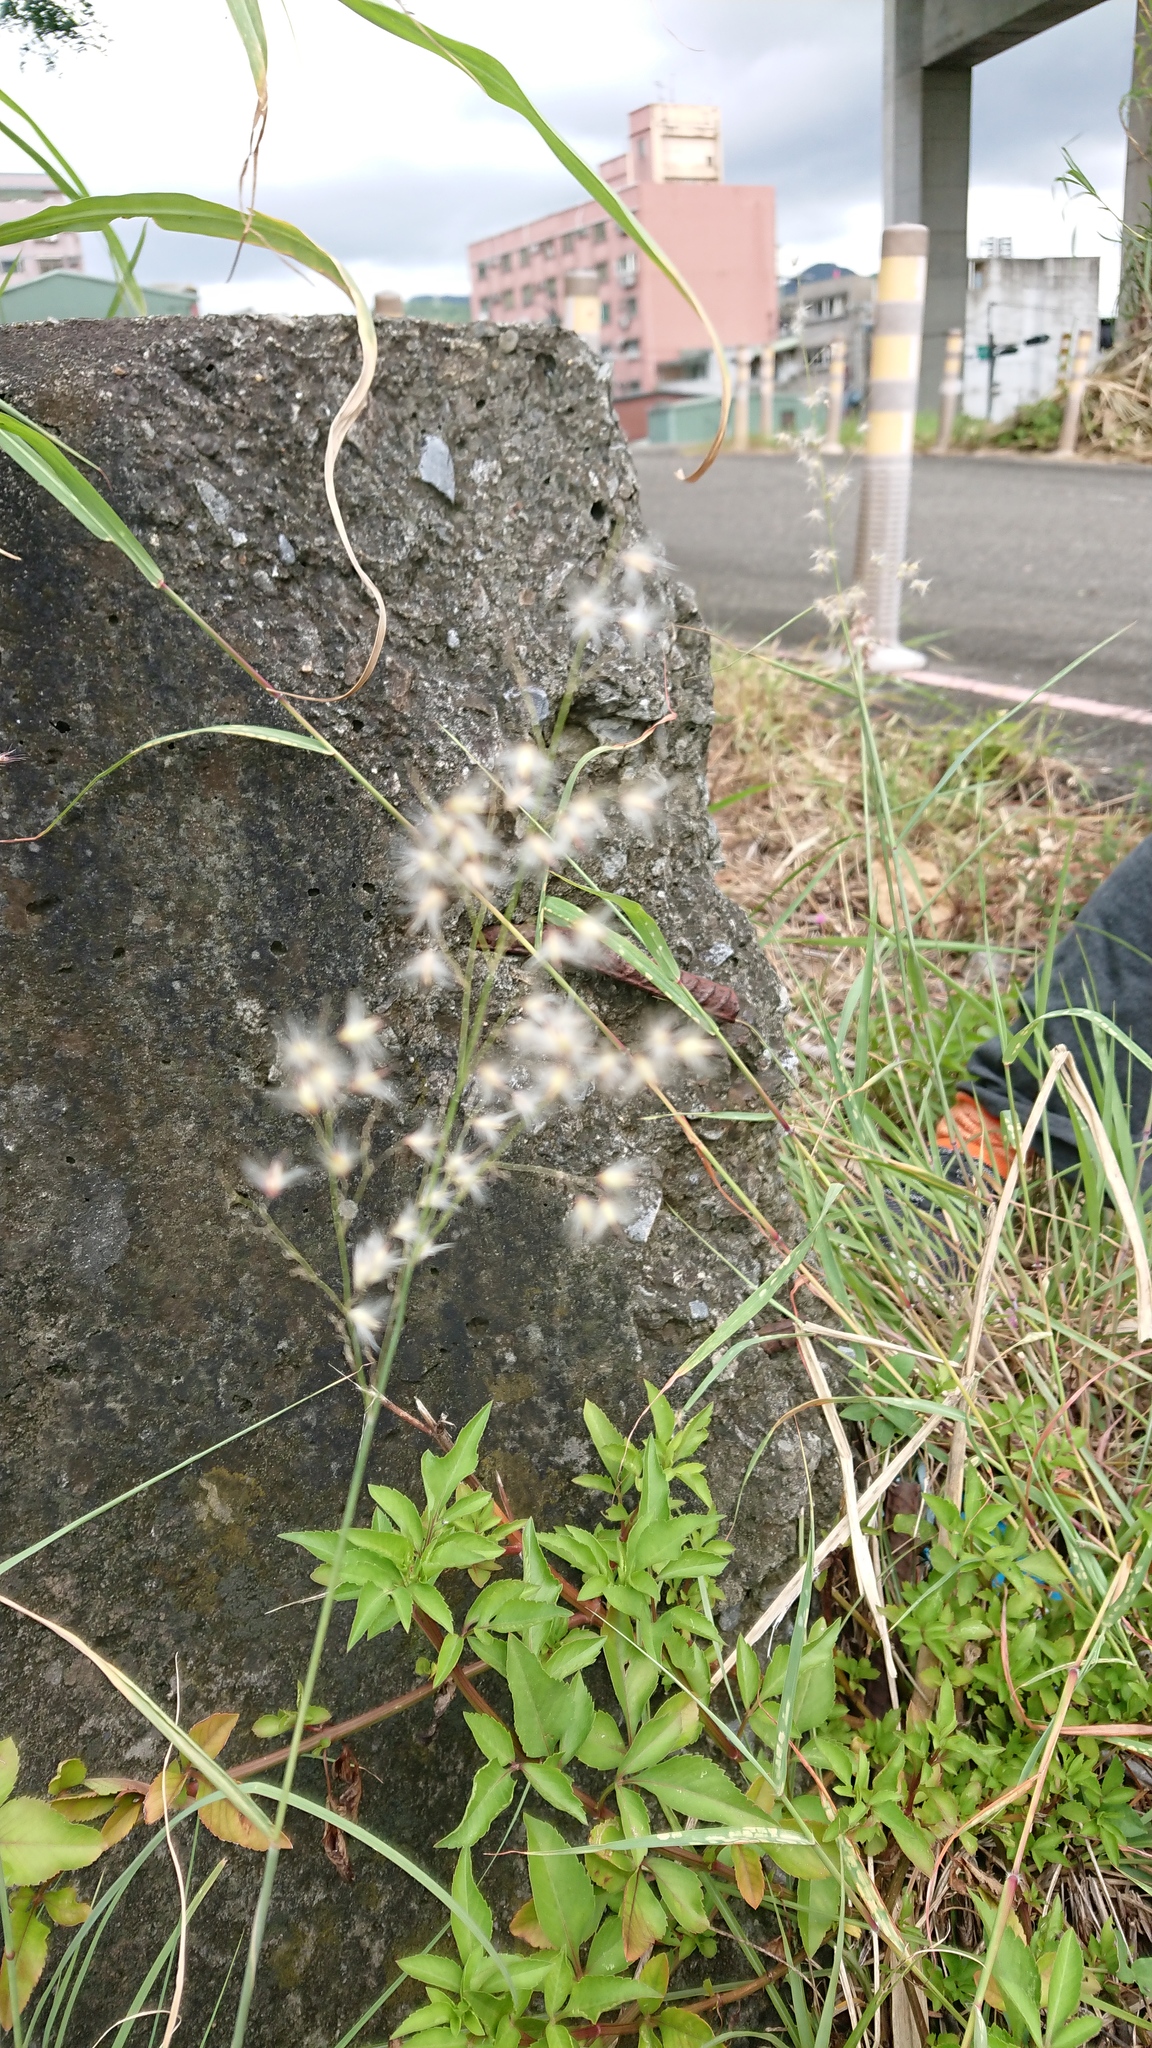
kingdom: Plantae
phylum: Tracheophyta
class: Liliopsida
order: Poales
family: Poaceae
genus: Melinis
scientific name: Melinis repens
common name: Rose natal grass
